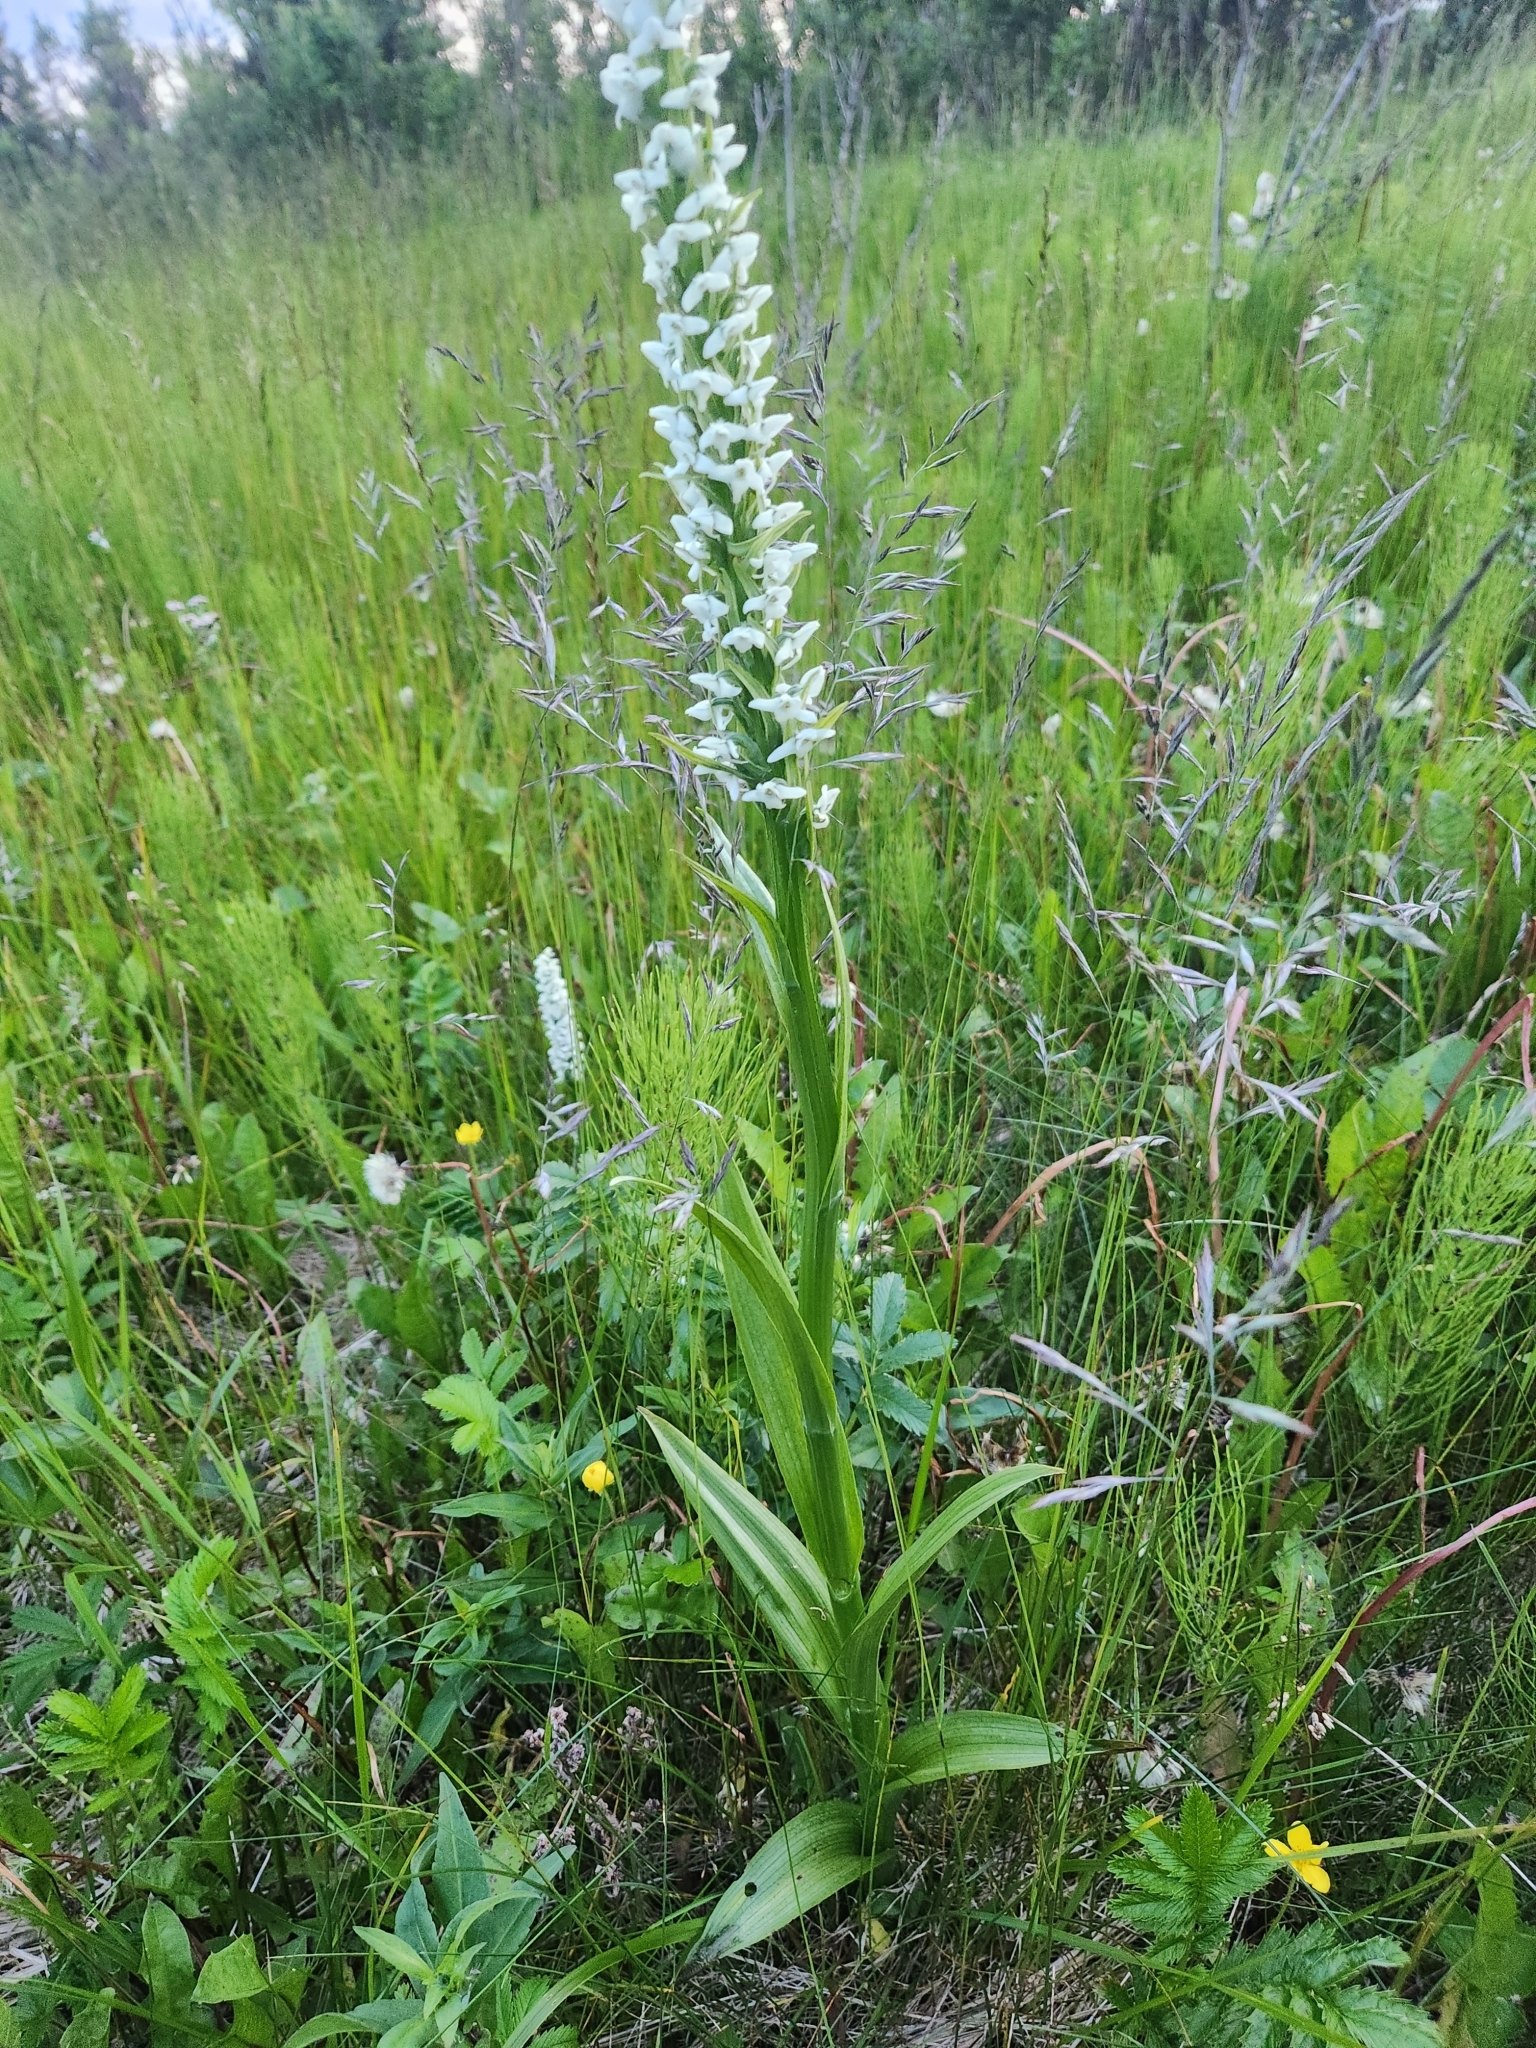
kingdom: Plantae
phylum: Tracheophyta
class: Liliopsida
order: Asparagales
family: Orchidaceae
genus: Platanthera
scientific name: Platanthera dilatata
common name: Bog candles
